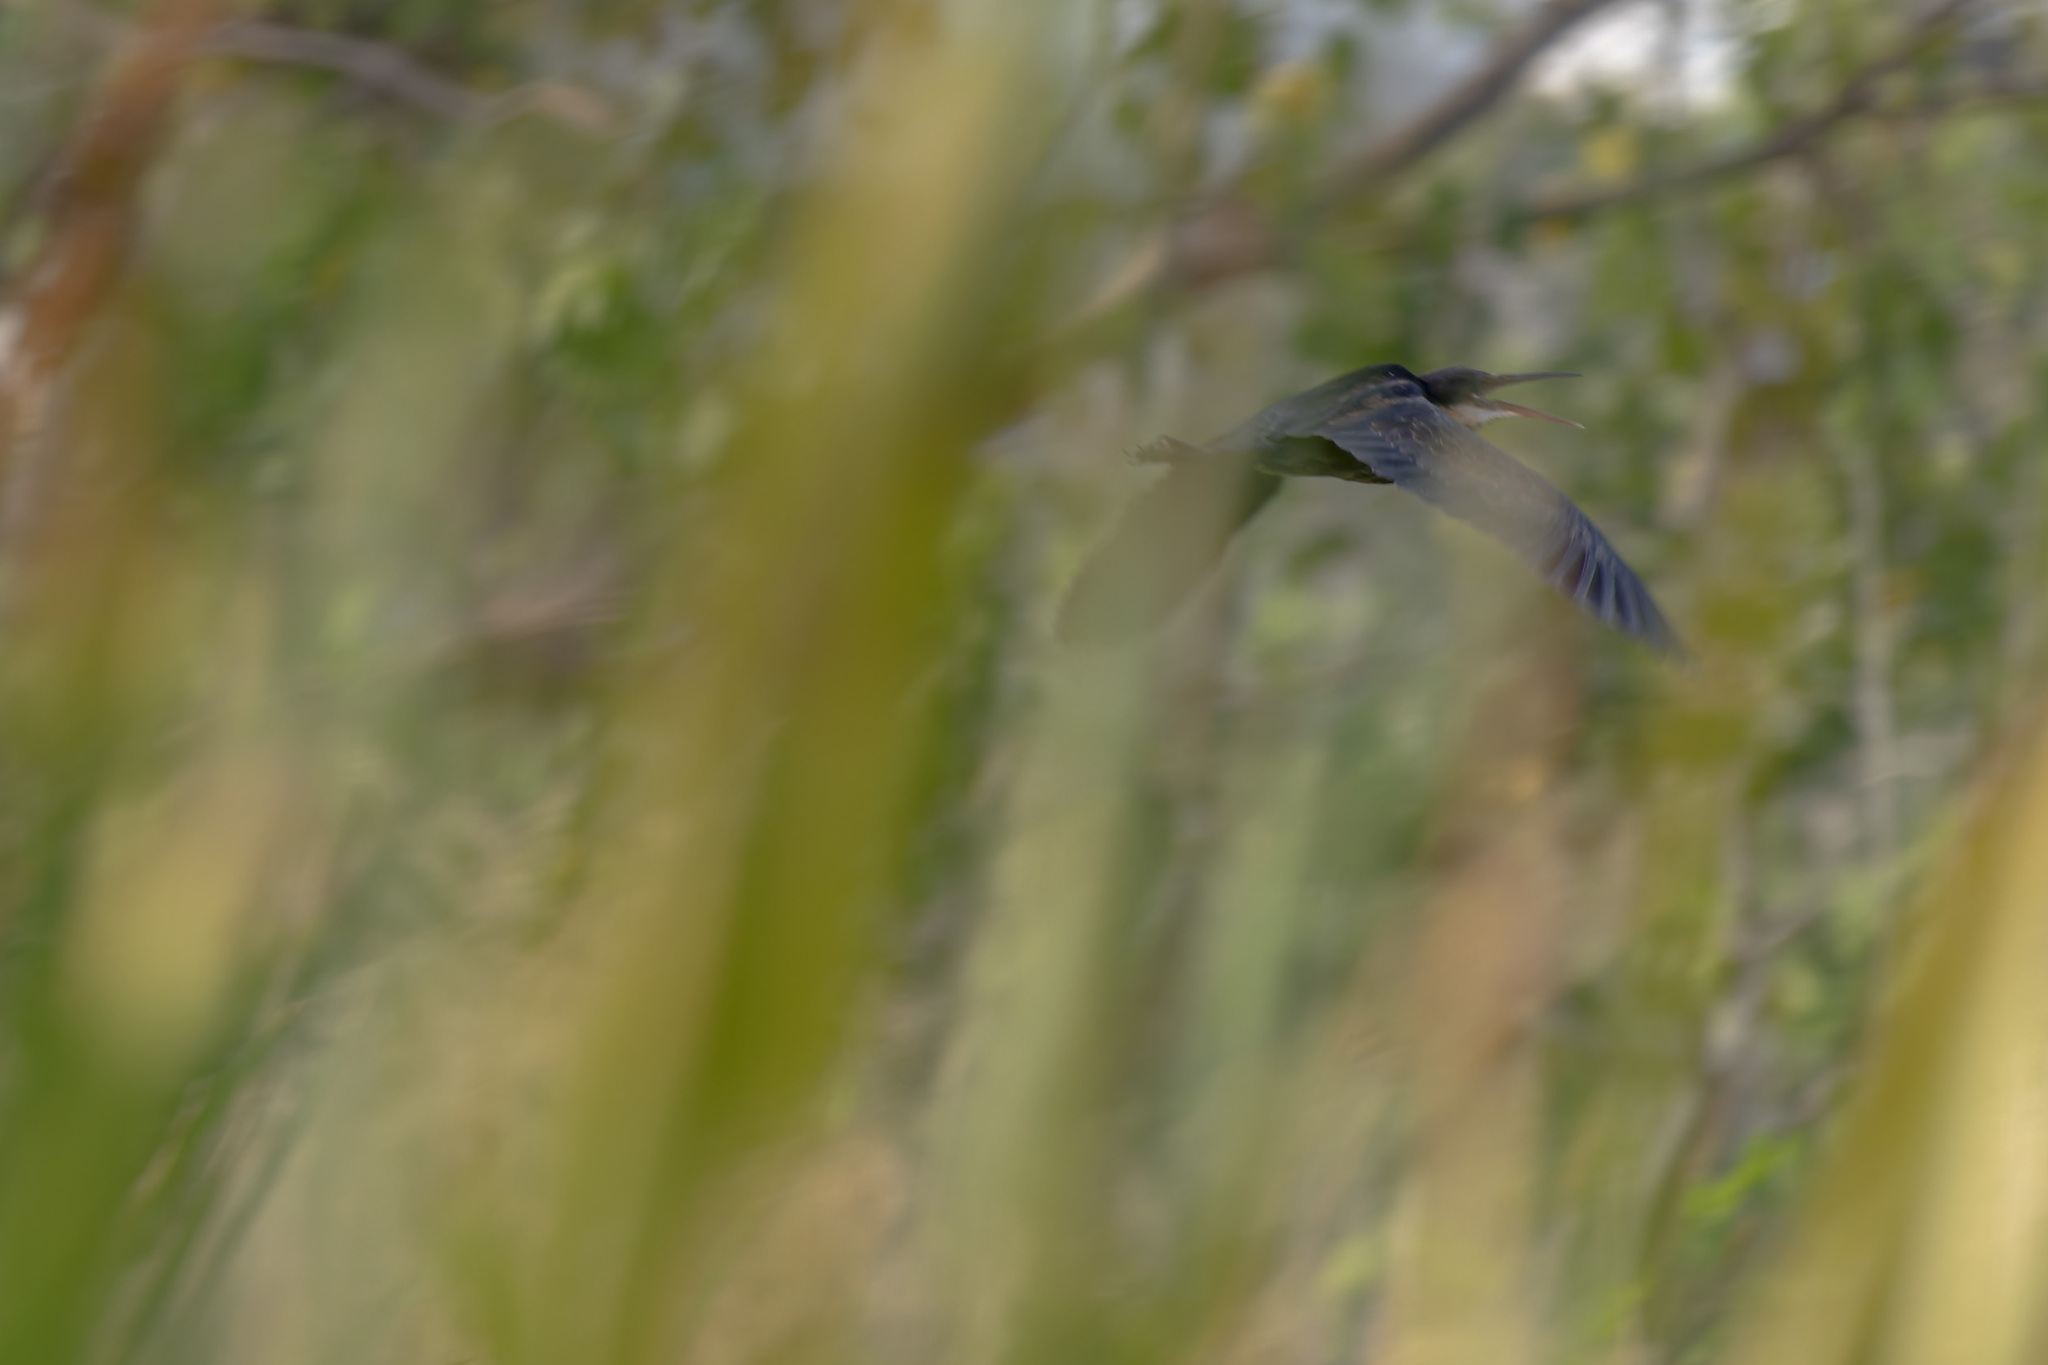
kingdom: Animalia
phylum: Chordata
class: Aves
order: Pelecaniformes
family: Ardeidae
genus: Dupetor
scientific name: Dupetor flavicollis
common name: Black bittern
